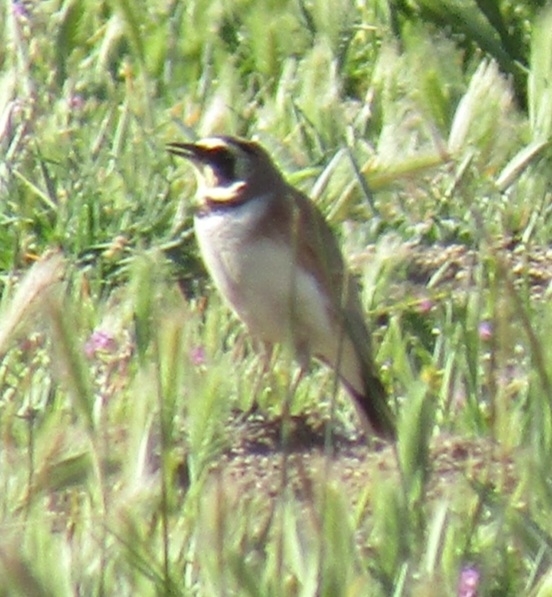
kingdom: Animalia
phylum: Chordata
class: Aves
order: Passeriformes
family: Alaudidae
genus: Eremophila
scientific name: Eremophila alpestris
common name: Horned lark
